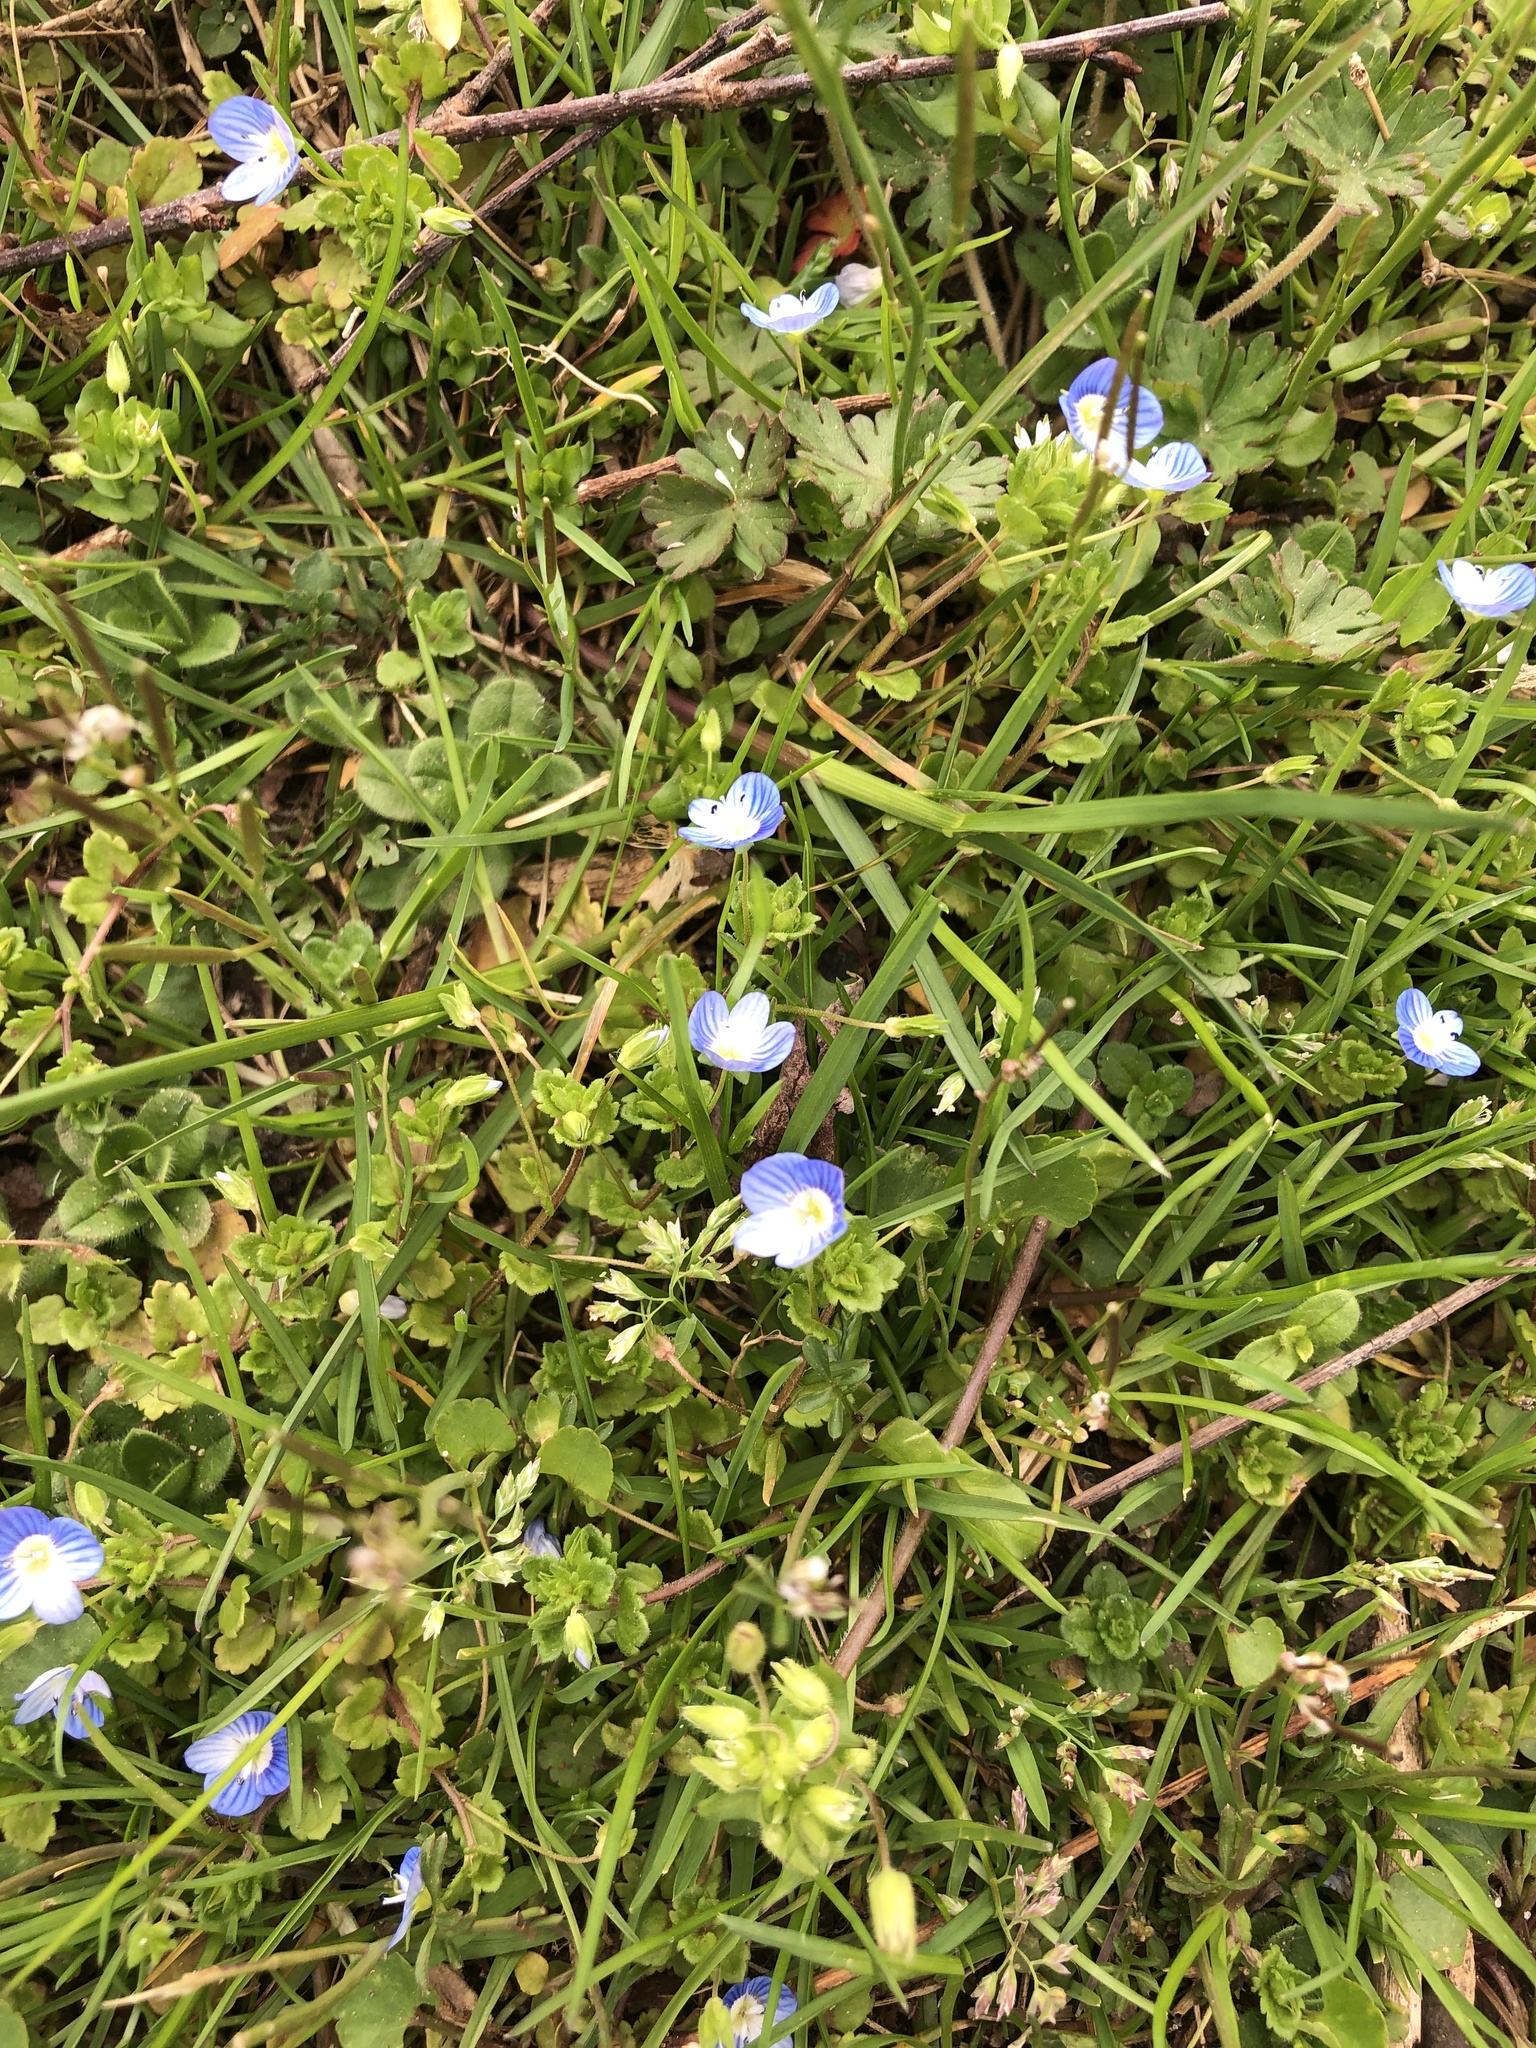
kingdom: Plantae
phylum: Tracheophyta
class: Magnoliopsida
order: Lamiales
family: Plantaginaceae
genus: Veronica
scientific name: Veronica persica
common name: Common field-speedwell
